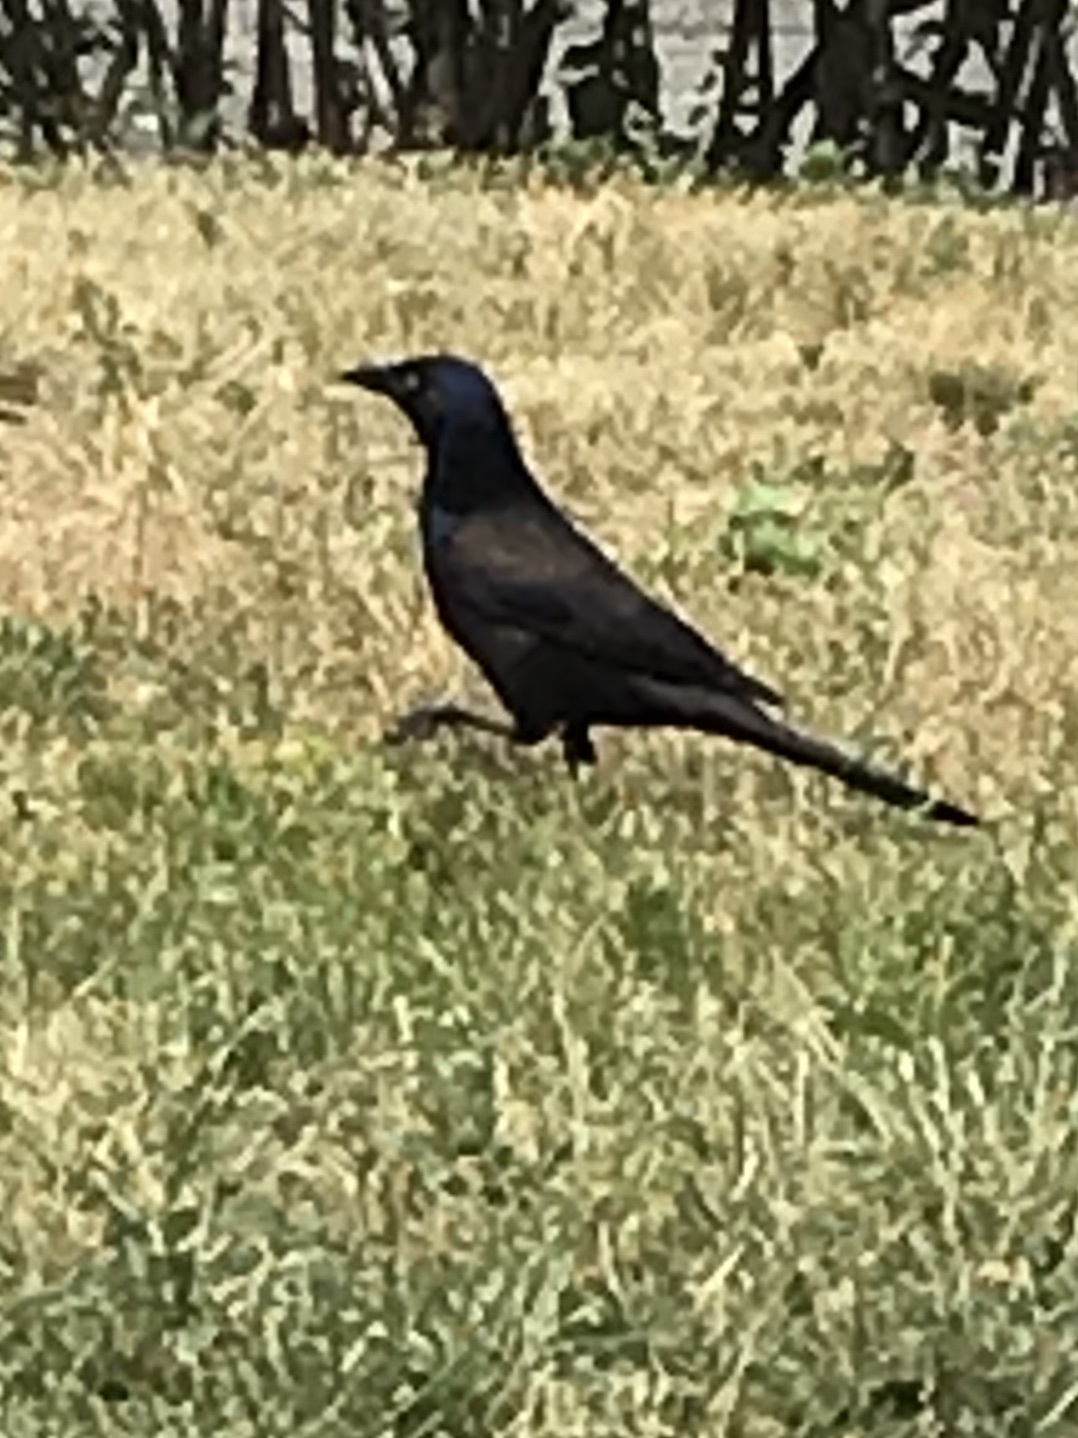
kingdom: Animalia
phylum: Chordata
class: Aves
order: Passeriformes
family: Icteridae
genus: Quiscalus
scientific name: Quiscalus quiscula
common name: Common grackle
